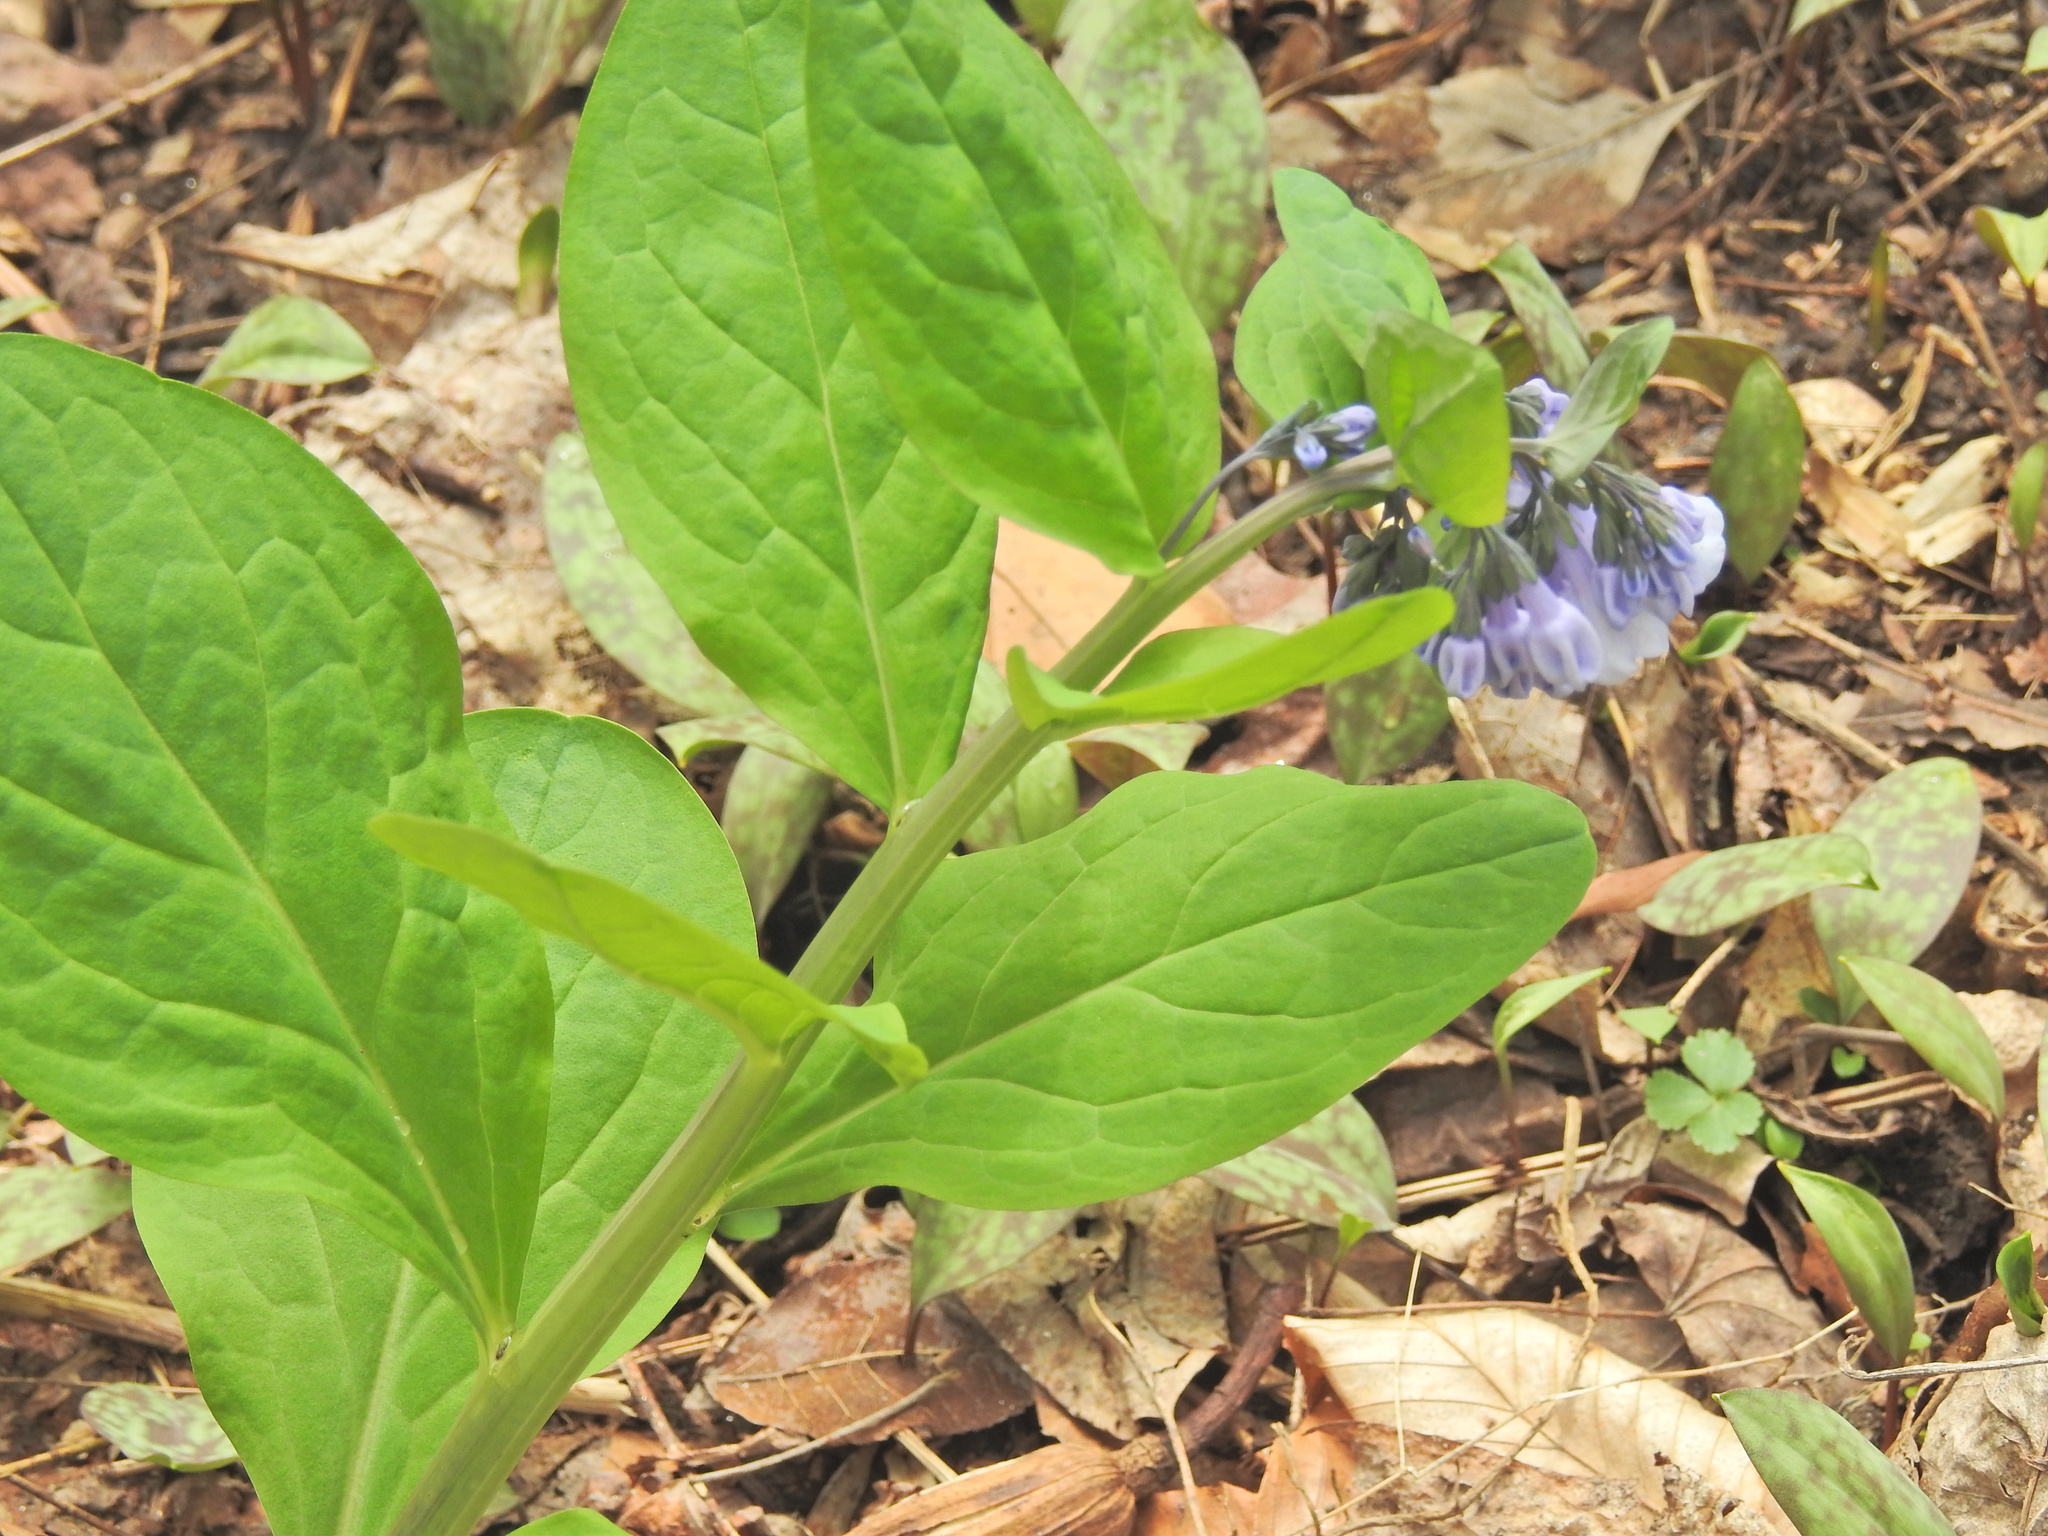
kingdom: Plantae
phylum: Tracheophyta
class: Magnoliopsida
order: Boraginales
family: Boraginaceae
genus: Mertensia
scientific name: Mertensia virginica
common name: Virginia bluebells
